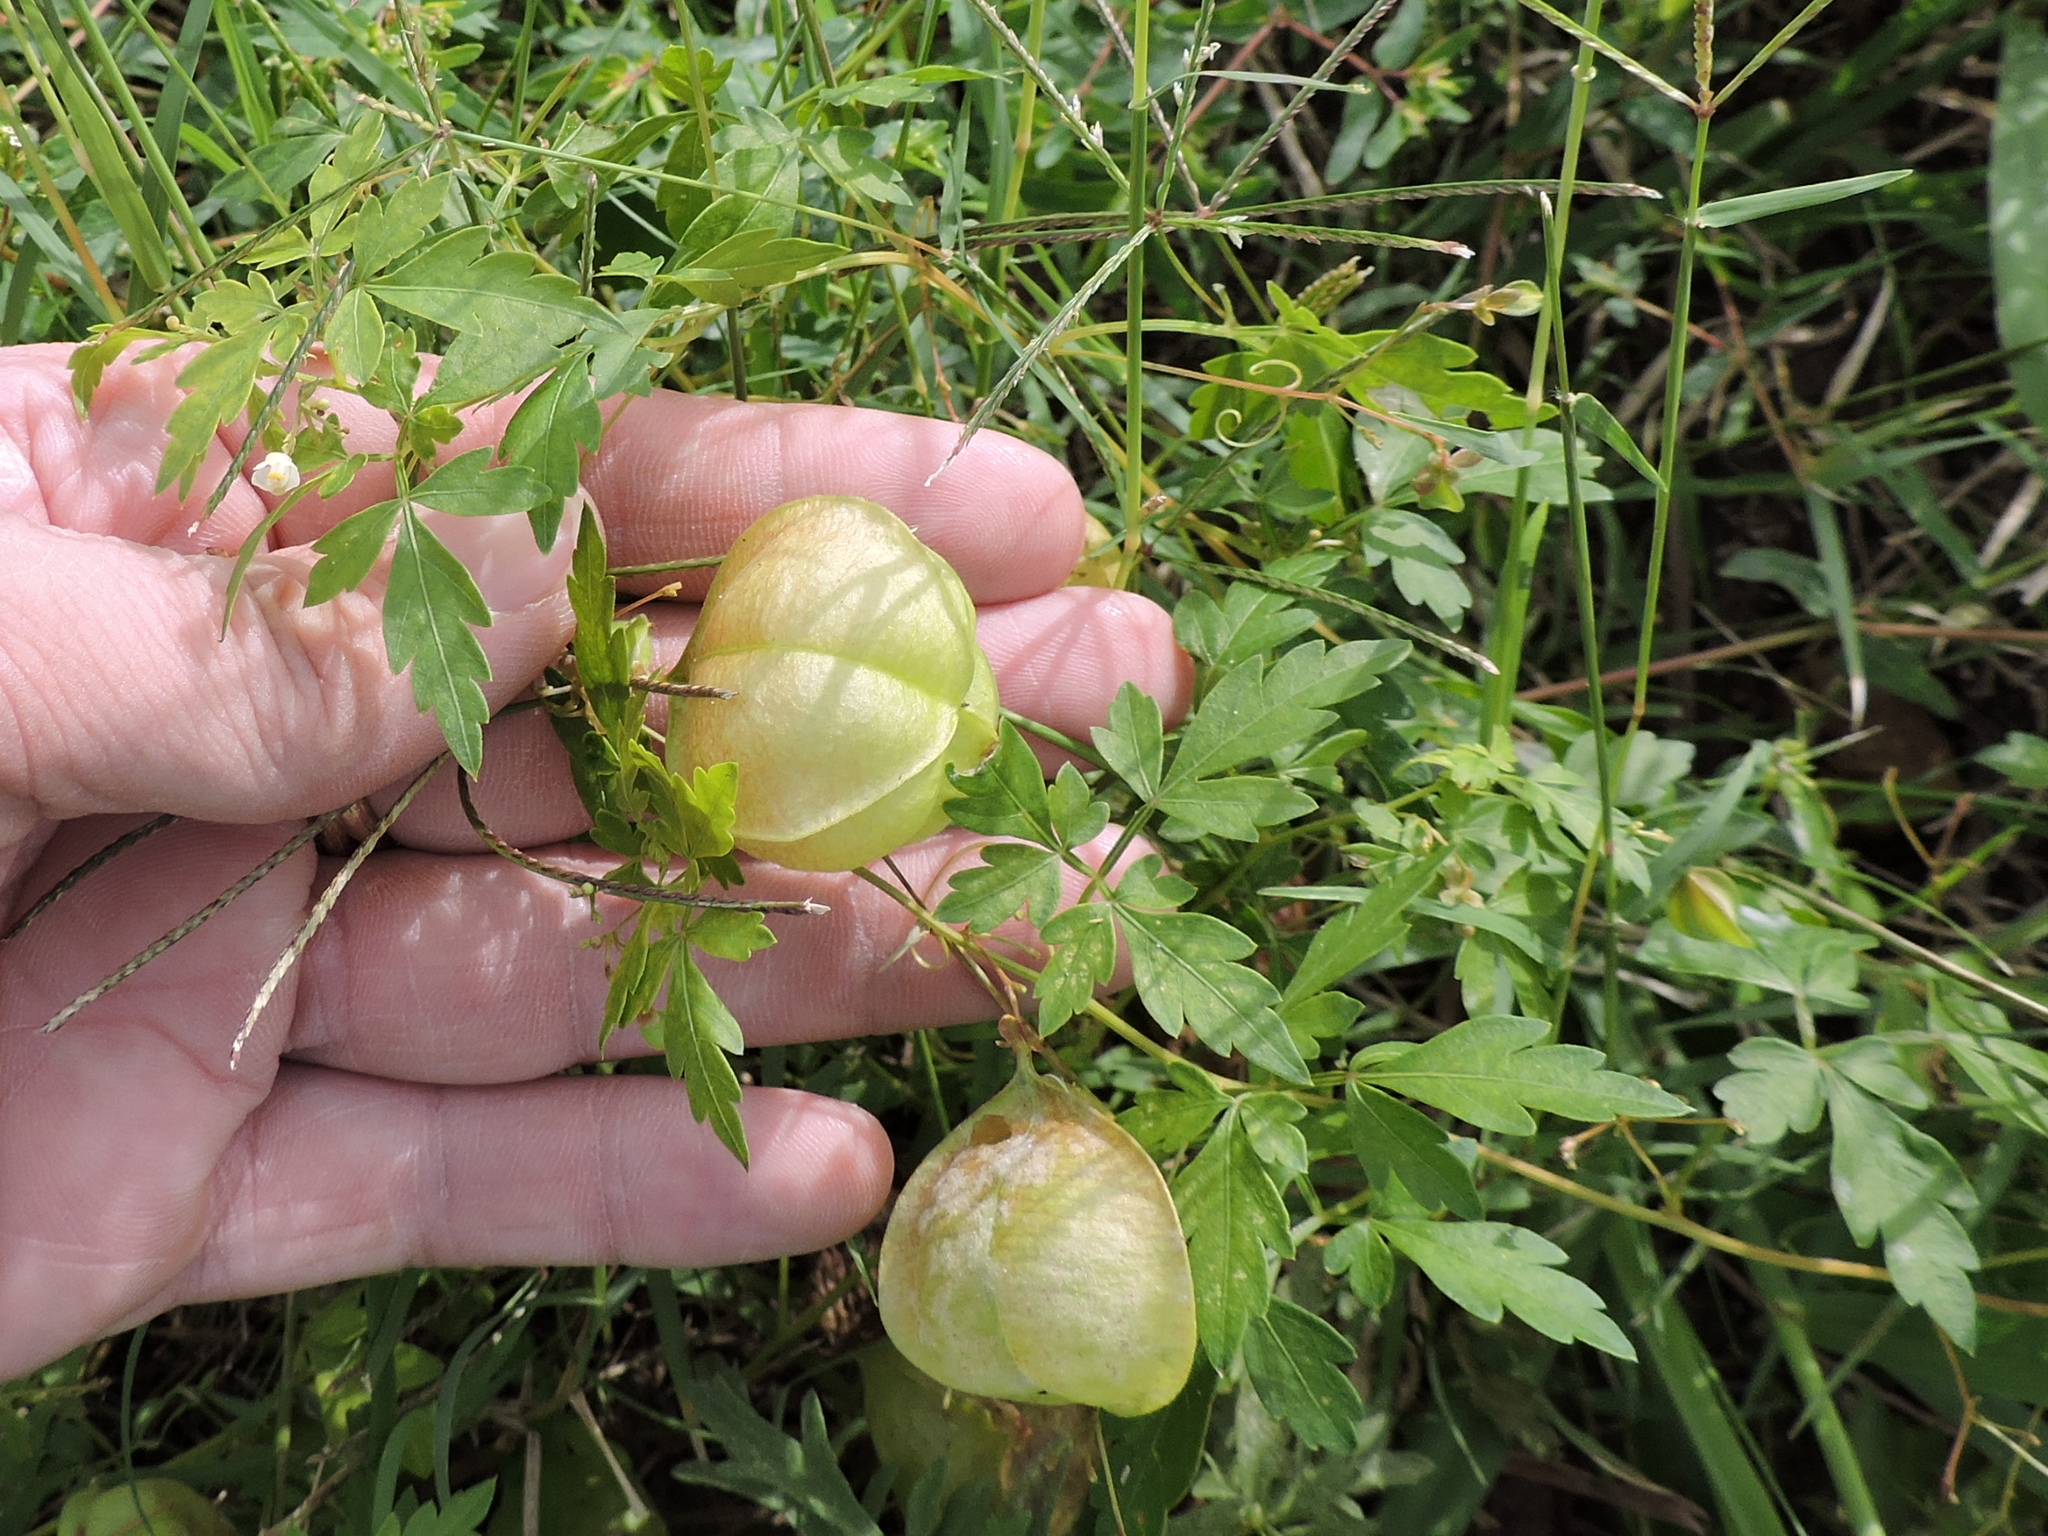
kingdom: Plantae
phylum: Tracheophyta
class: Magnoliopsida
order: Sapindales
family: Sapindaceae
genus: Cardiospermum
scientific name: Cardiospermum halicacabum
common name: Balloon vine
